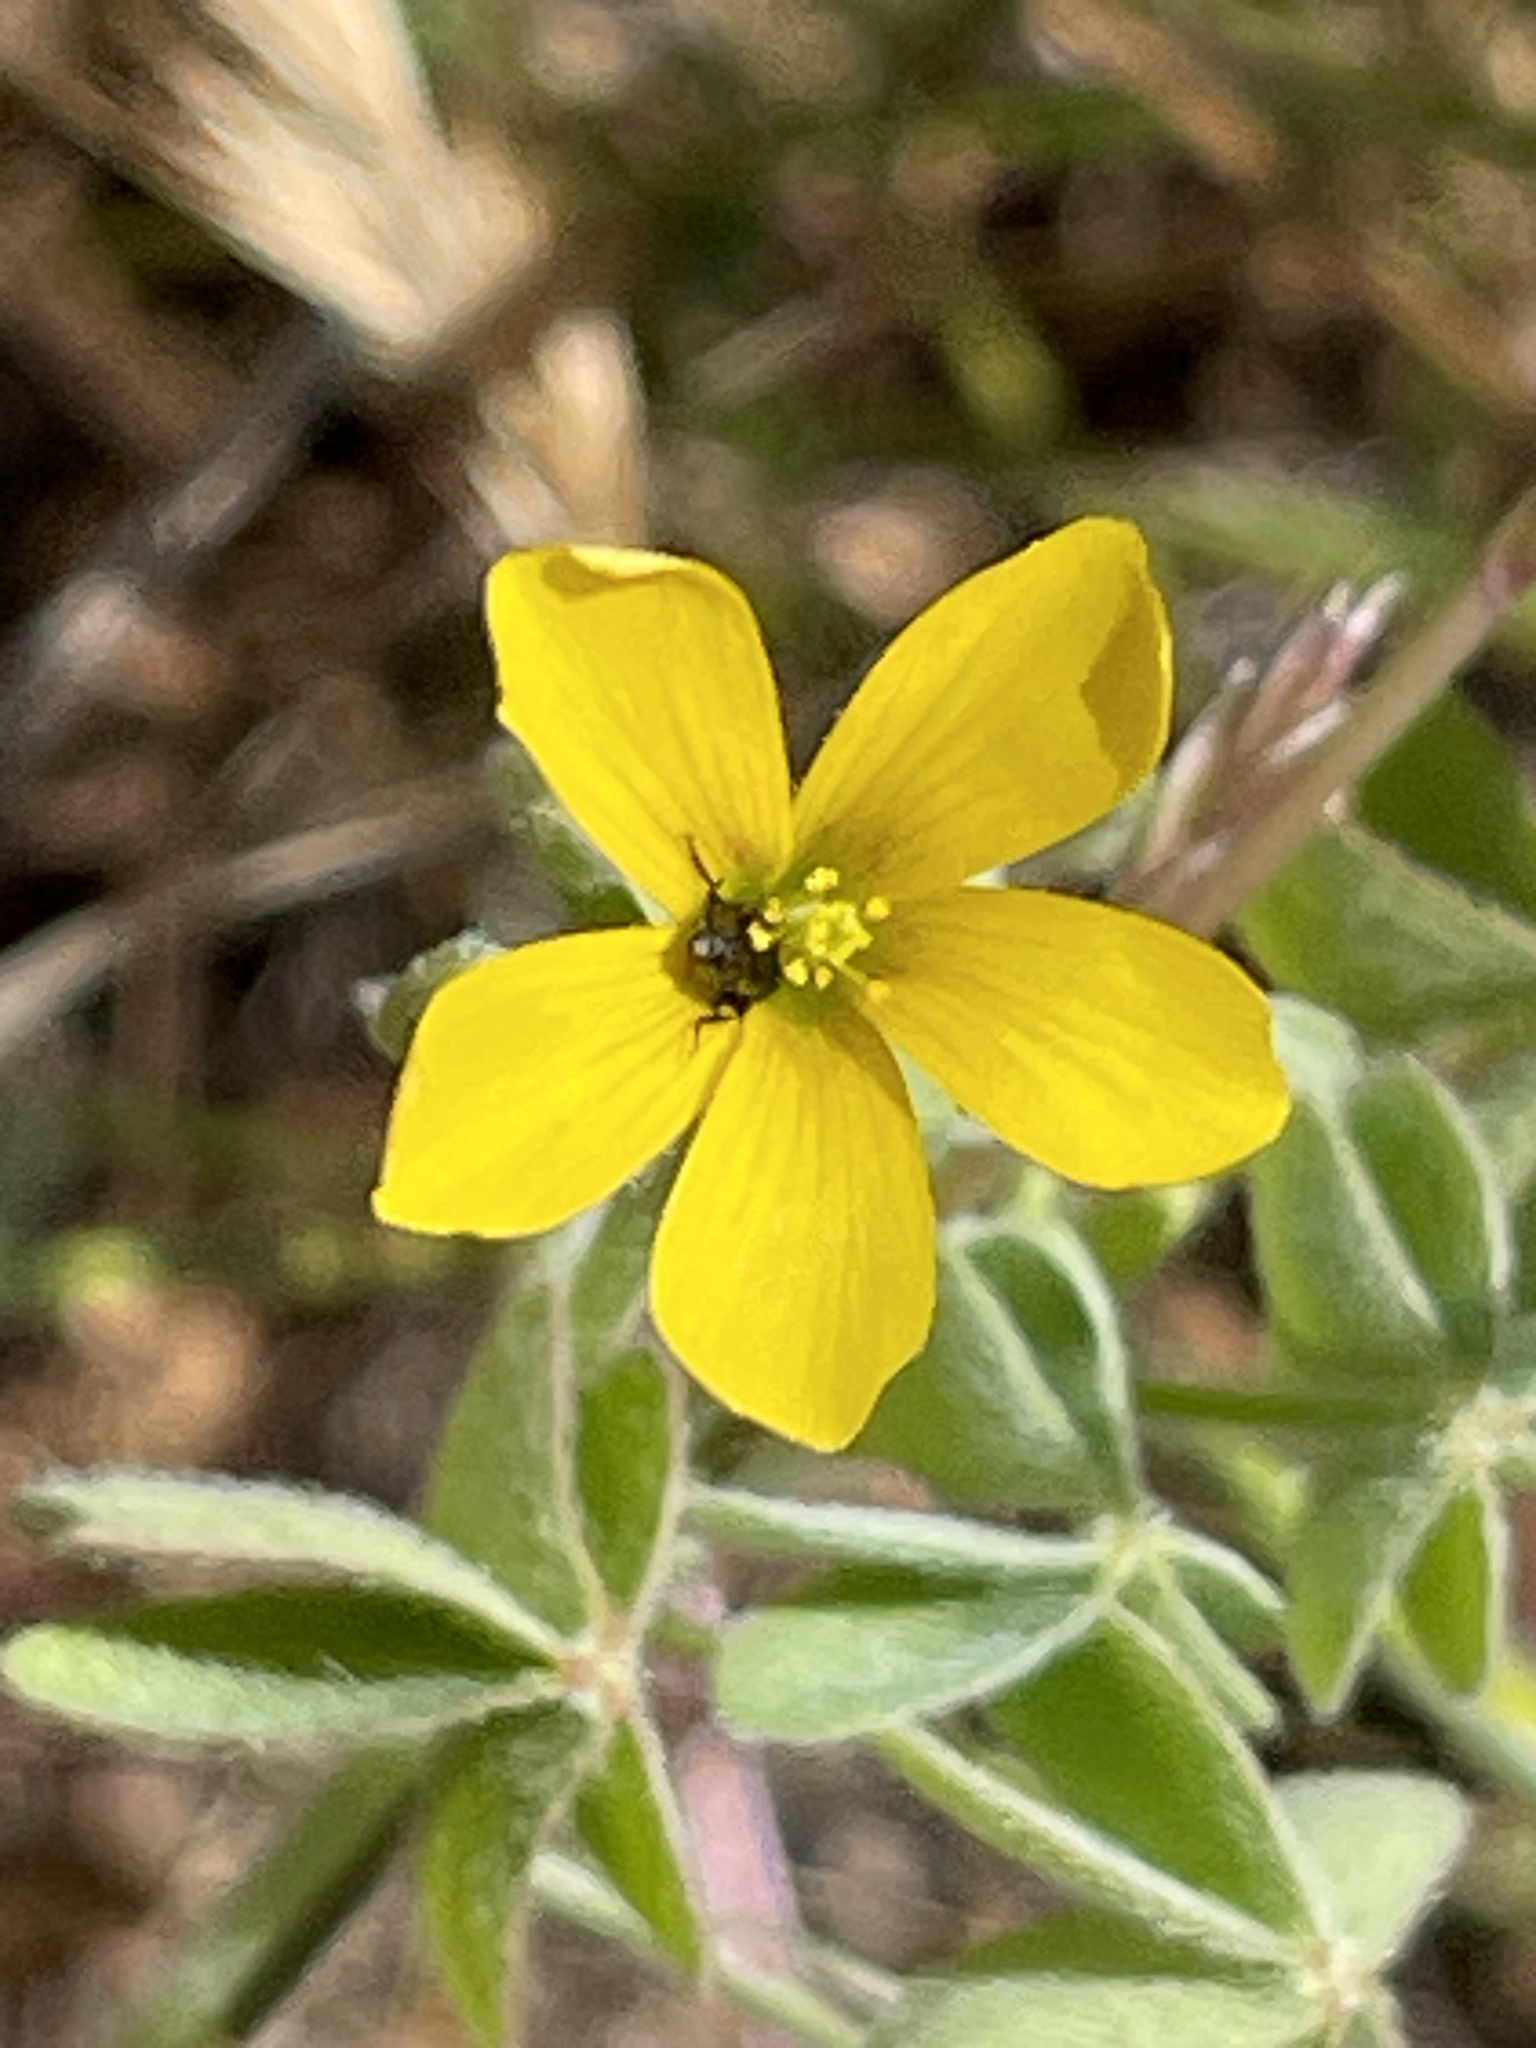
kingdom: Plantae
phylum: Tracheophyta
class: Magnoliopsida
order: Oxalidales
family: Oxalidaceae
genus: Oxalis
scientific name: Oxalis pilosa
